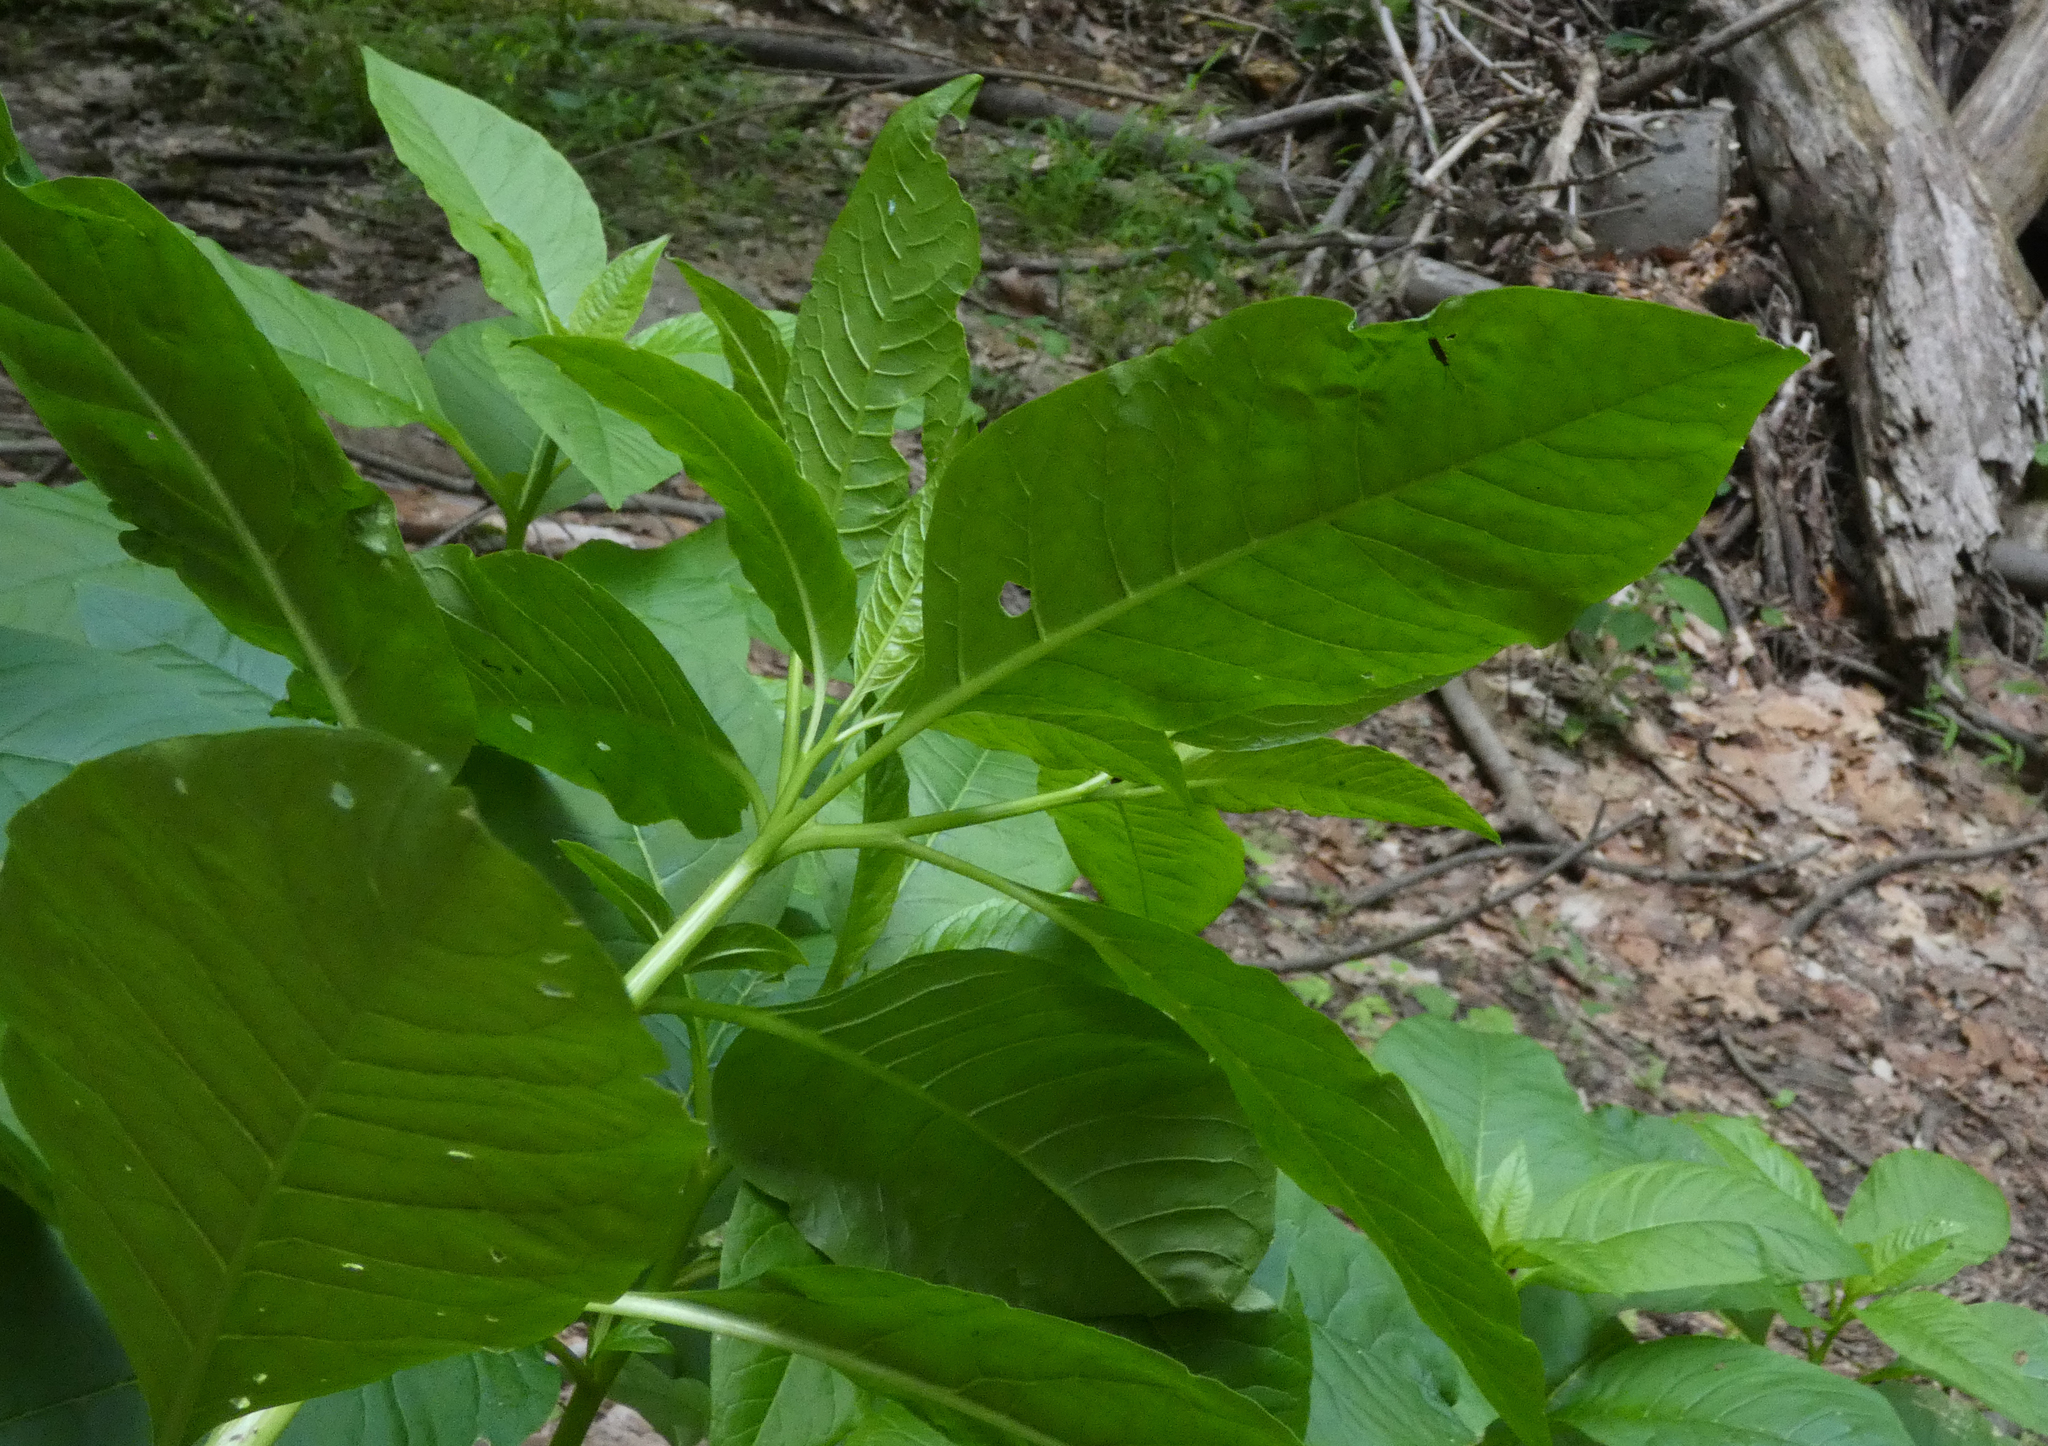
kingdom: Plantae
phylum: Tracheophyta
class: Magnoliopsida
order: Caryophyllales
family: Phytolaccaceae
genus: Phytolacca
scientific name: Phytolacca americana
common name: American pokeweed
